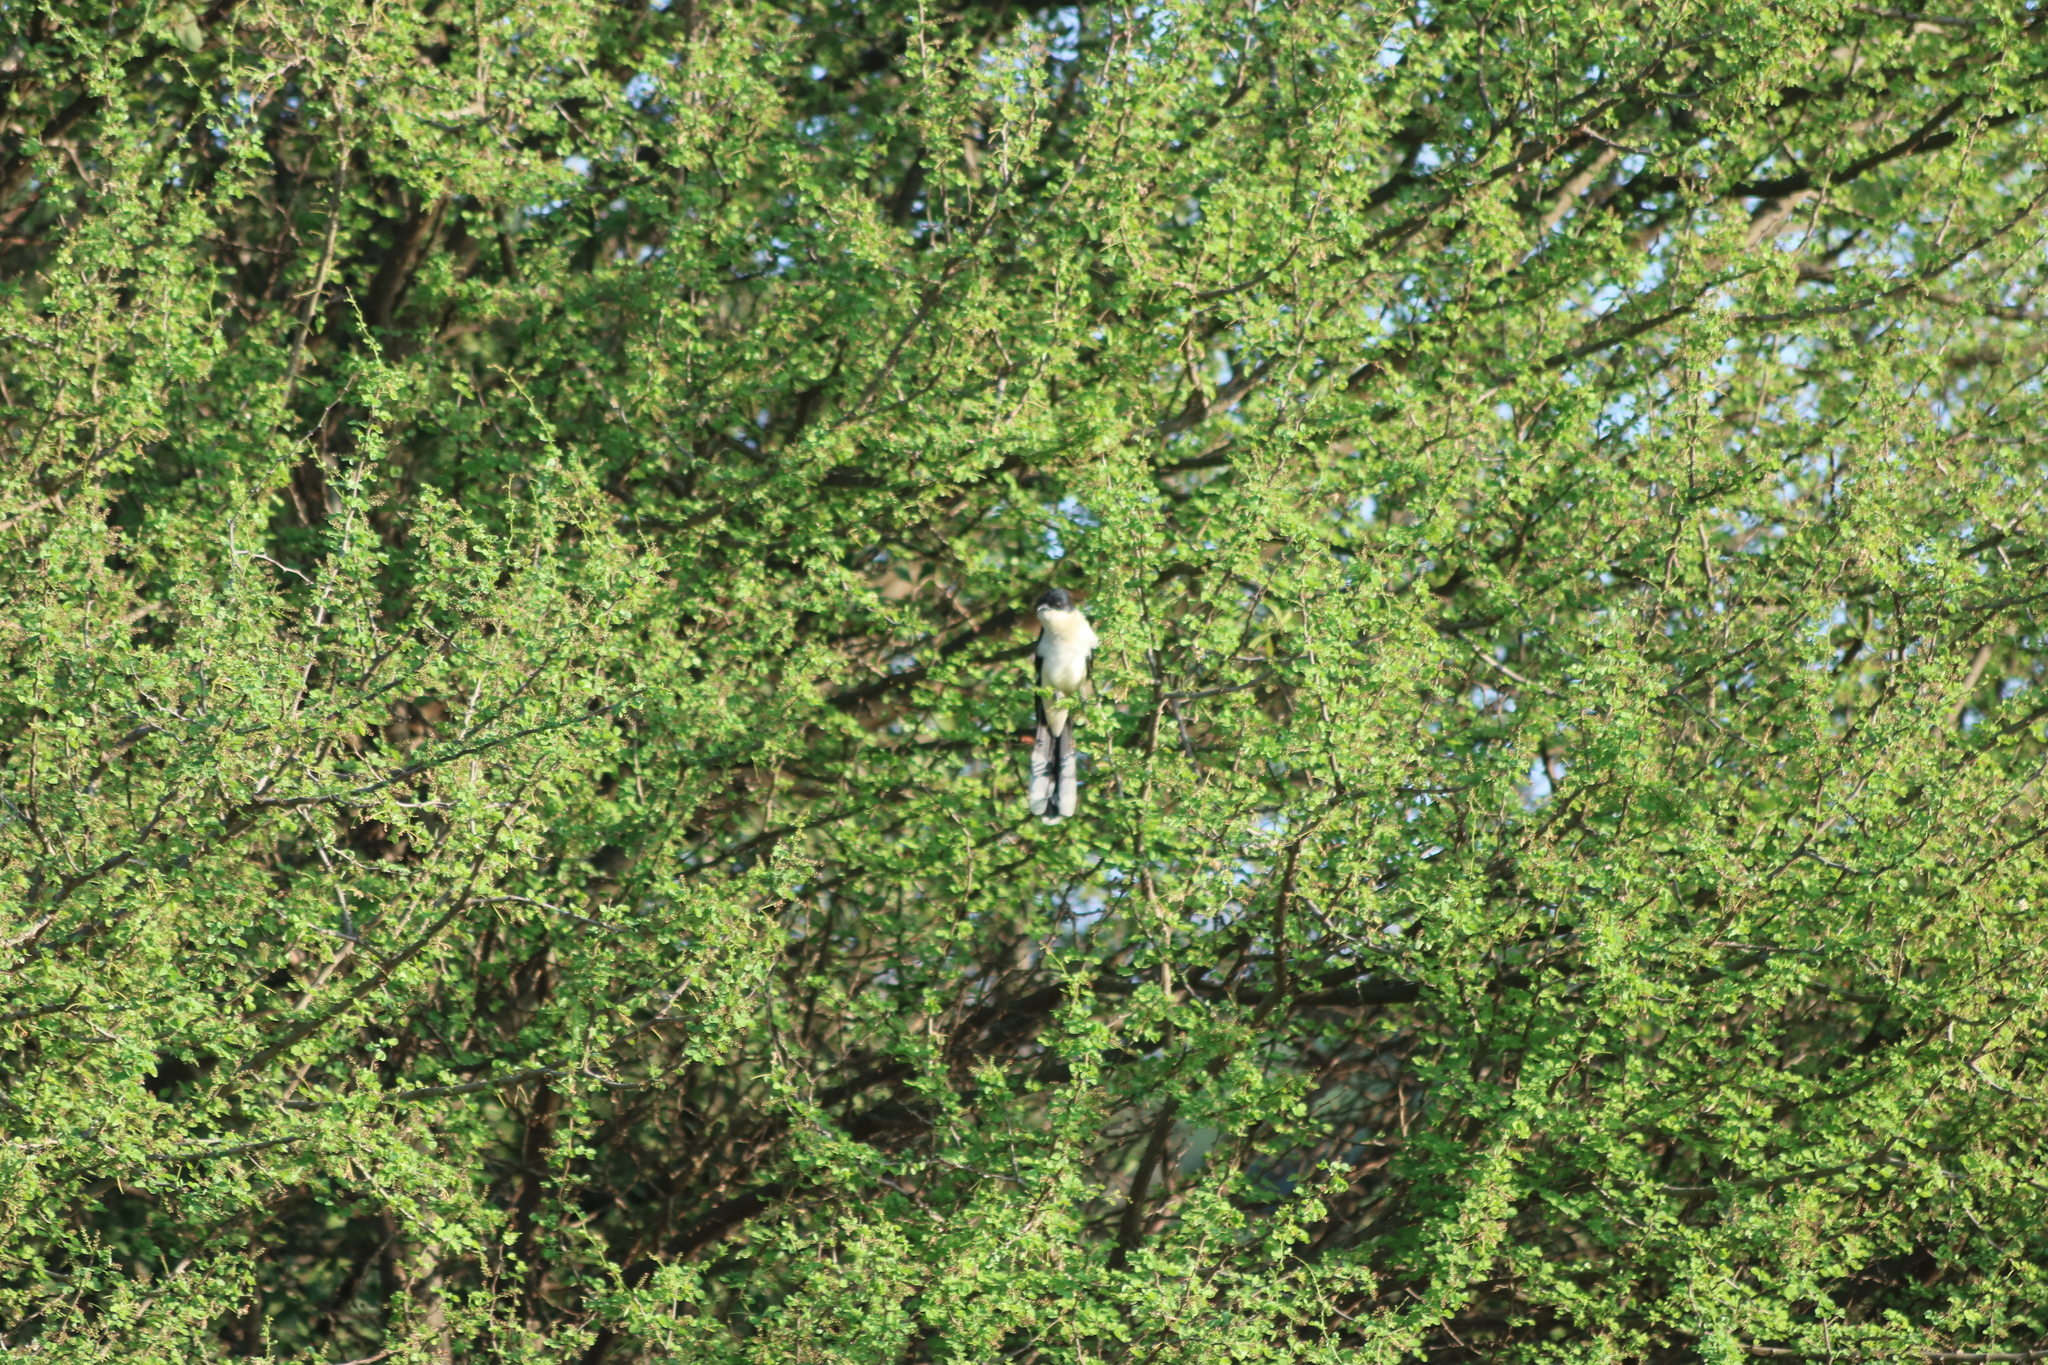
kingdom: Animalia
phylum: Chordata
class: Aves
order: Cuculiformes
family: Cuculidae
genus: Clamator
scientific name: Clamator jacobinus
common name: Jacobin cuckoo
